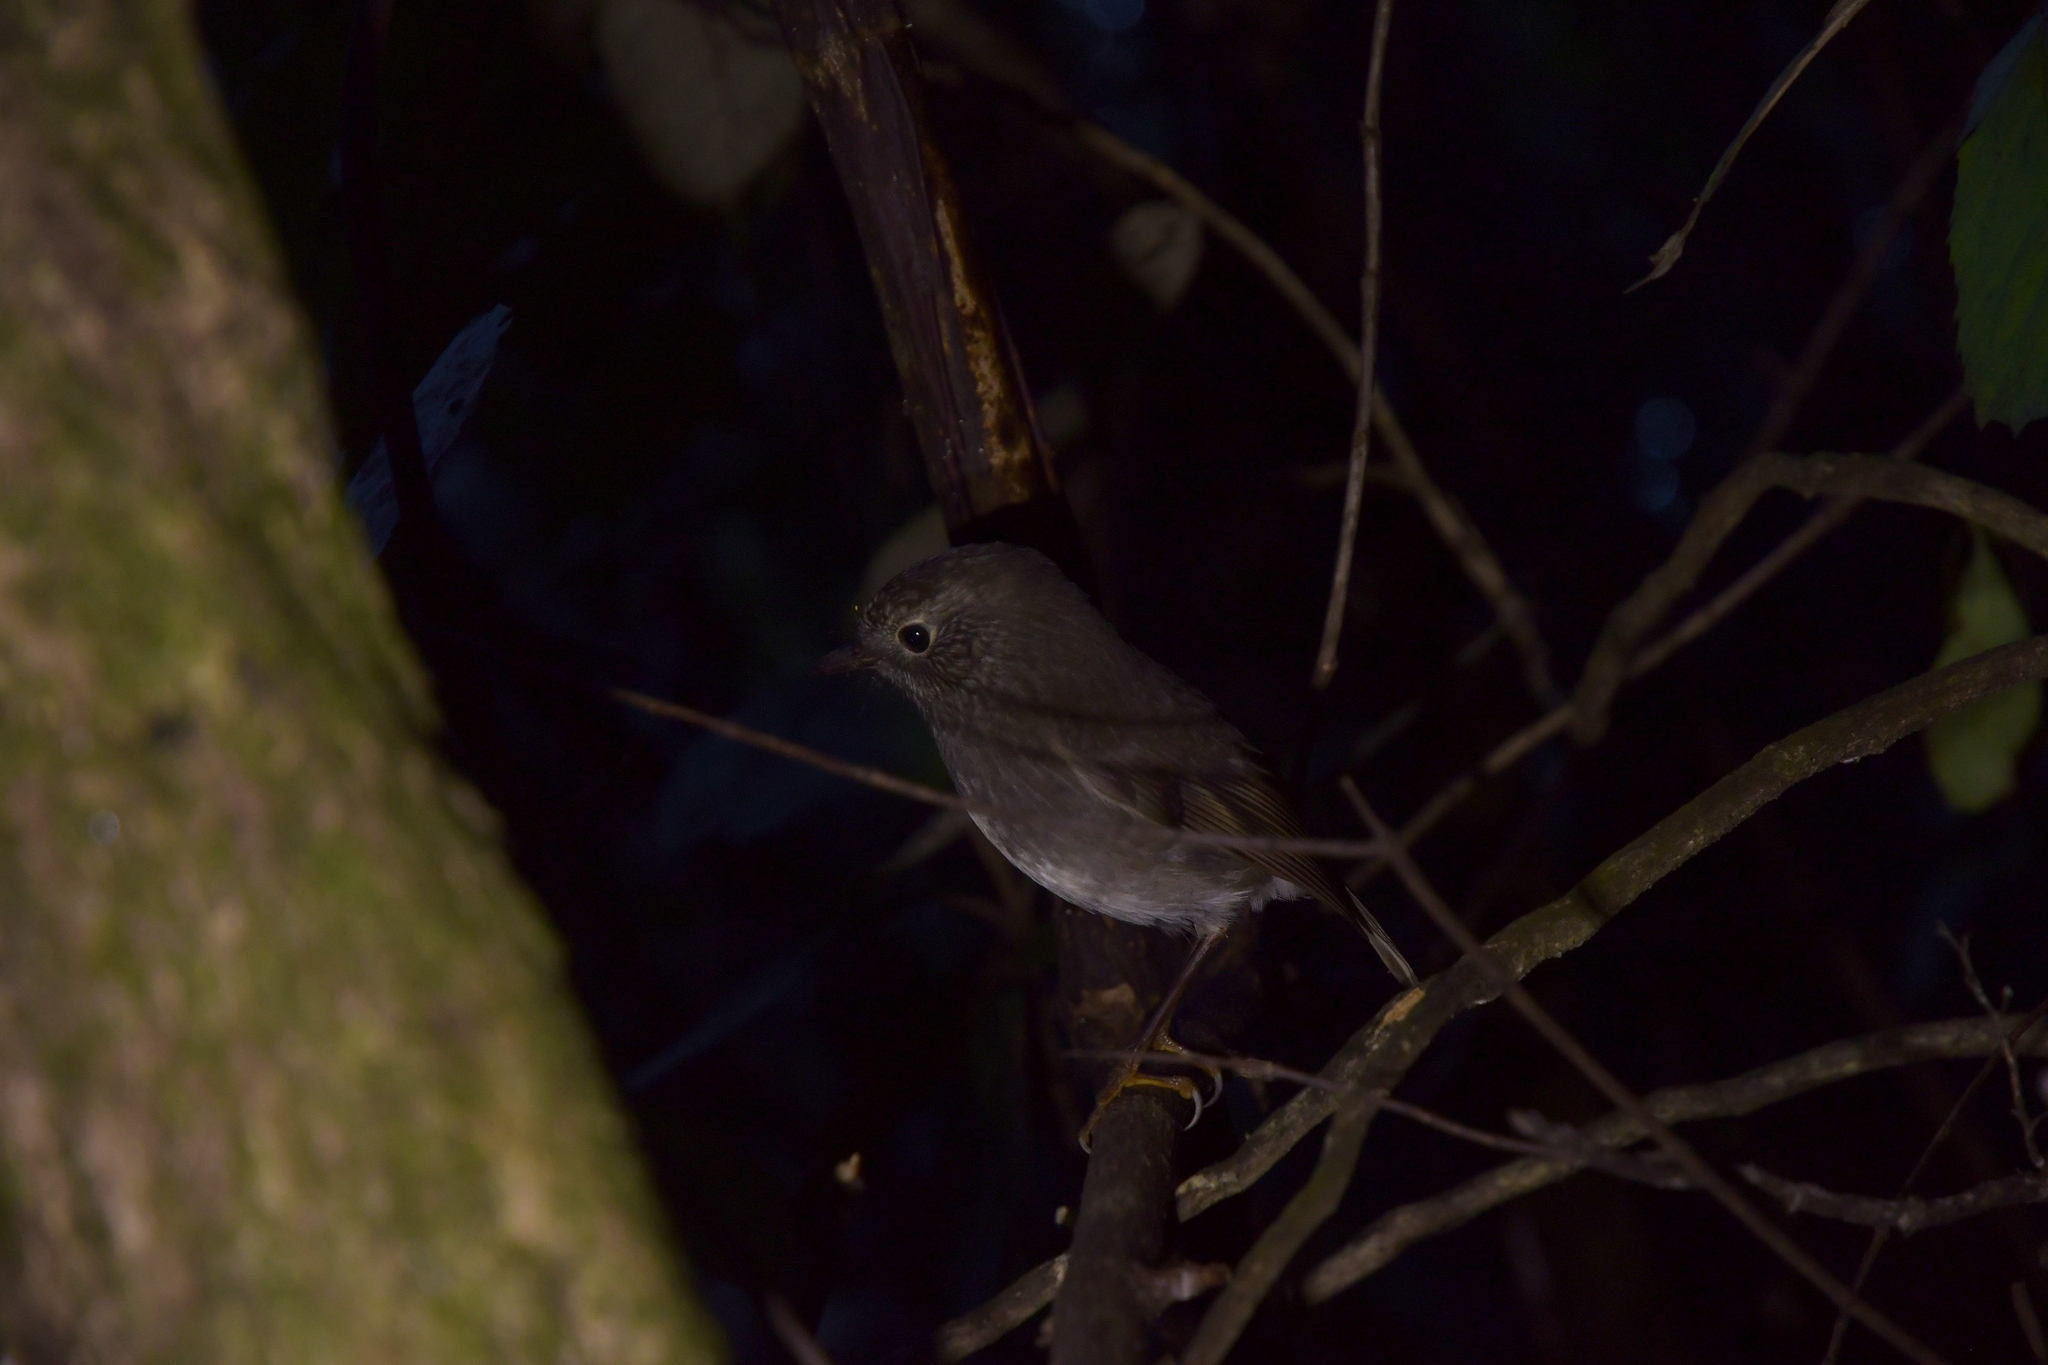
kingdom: Animalia
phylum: Chordata
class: Aves
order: Passeriformes
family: Petroicidae
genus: Petroica
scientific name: Petroica australis
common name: New zealand robin
